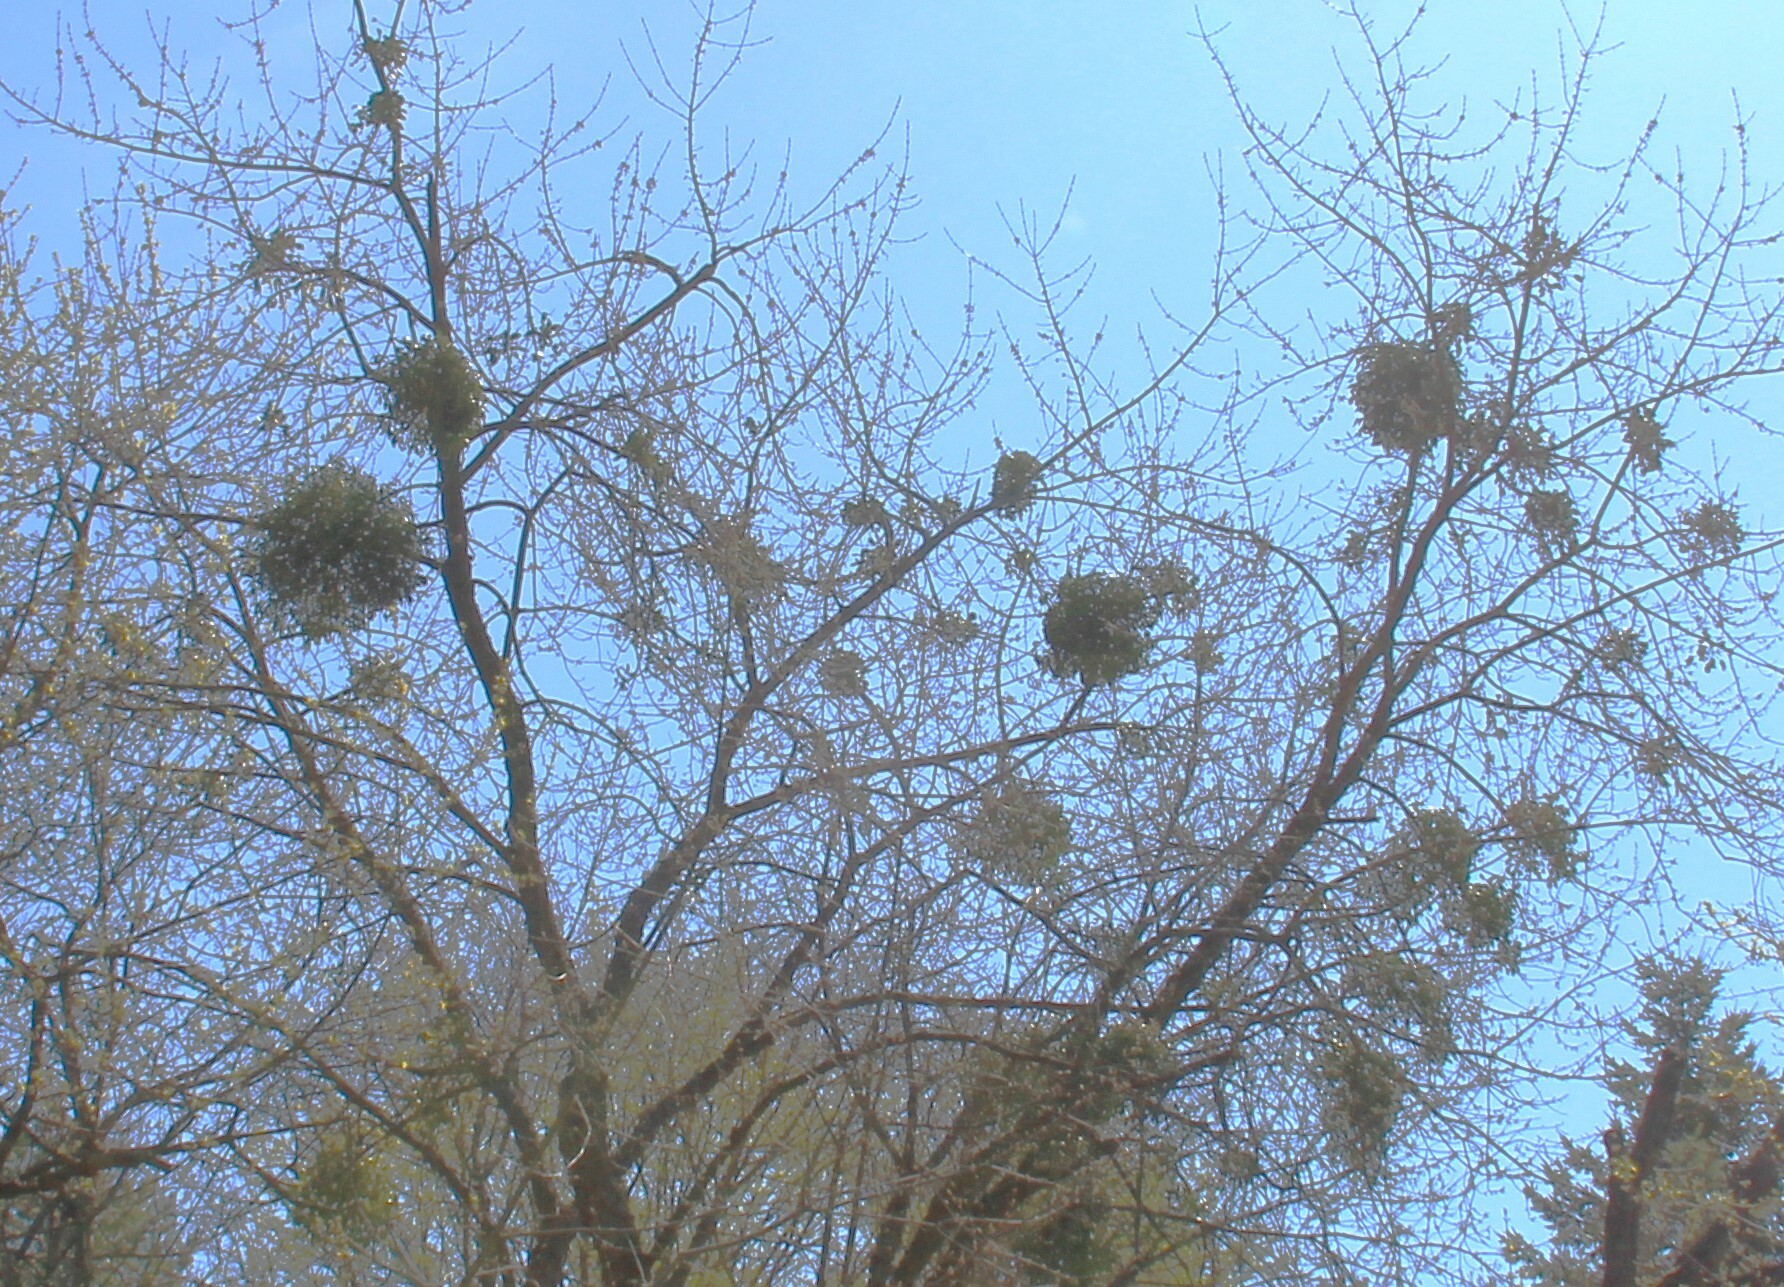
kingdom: Plantae
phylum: Tracheophyta
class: Magnoliopsida
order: Santalales
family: Viscaceae
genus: Viscum
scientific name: Viscum album
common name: Mistletoe
